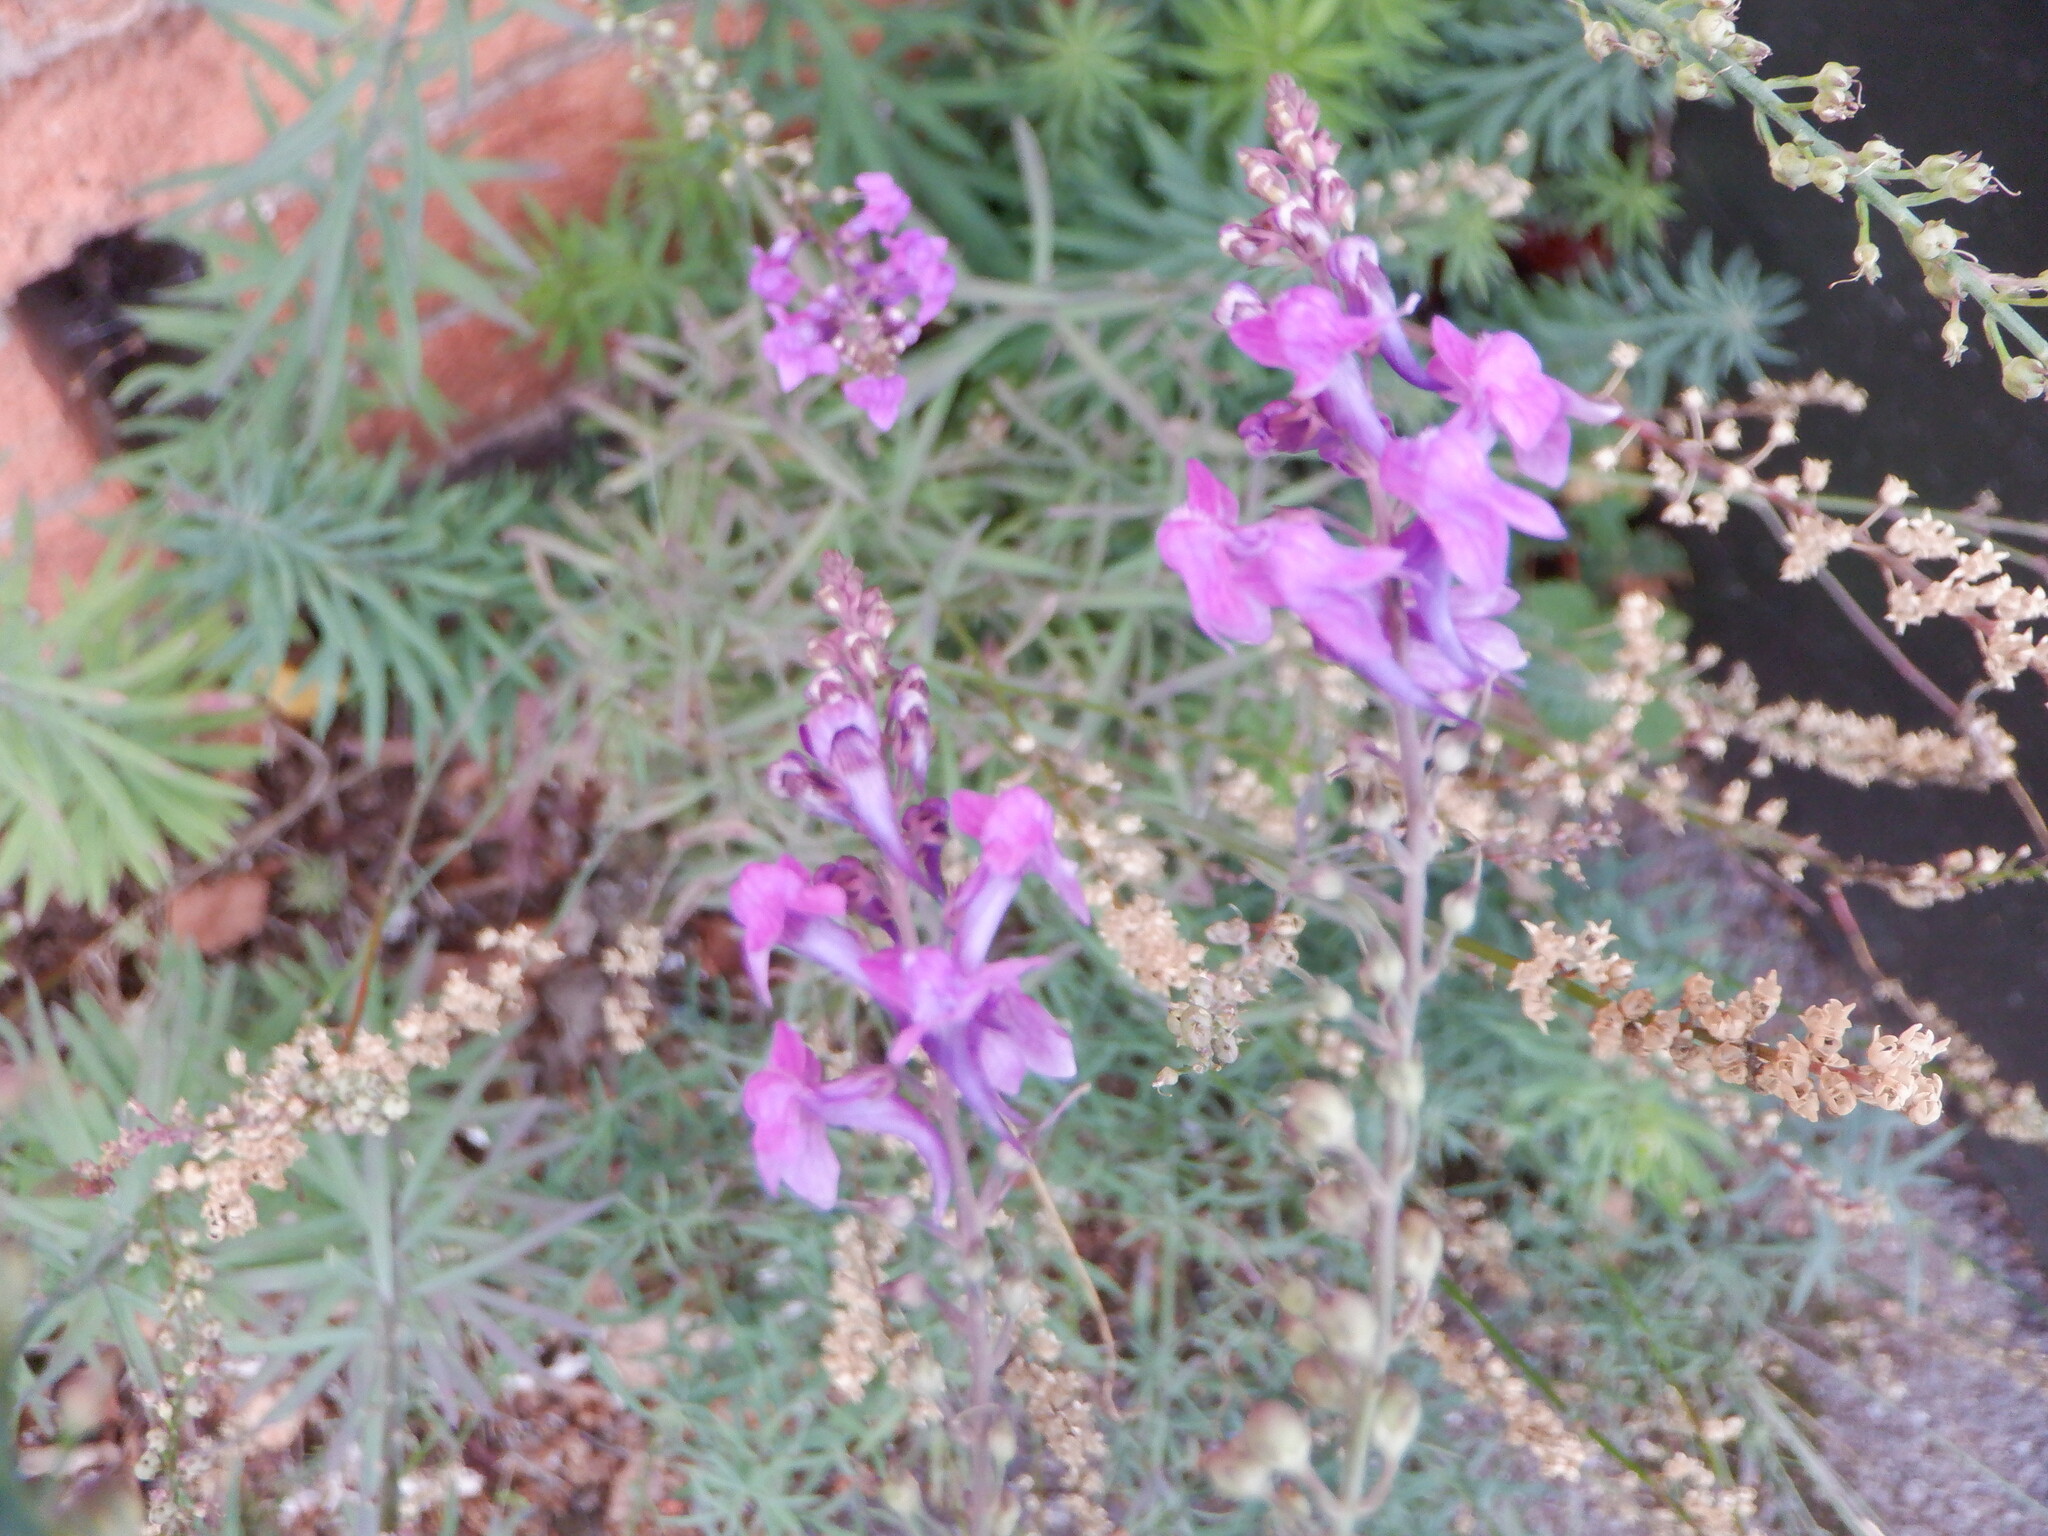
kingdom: Plantae
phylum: Tracheophyta
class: Magnoliopsida
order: Lamiales
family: Plantaginaceae
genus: Linaria
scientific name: Linaria purpurea
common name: Purple toadflax
